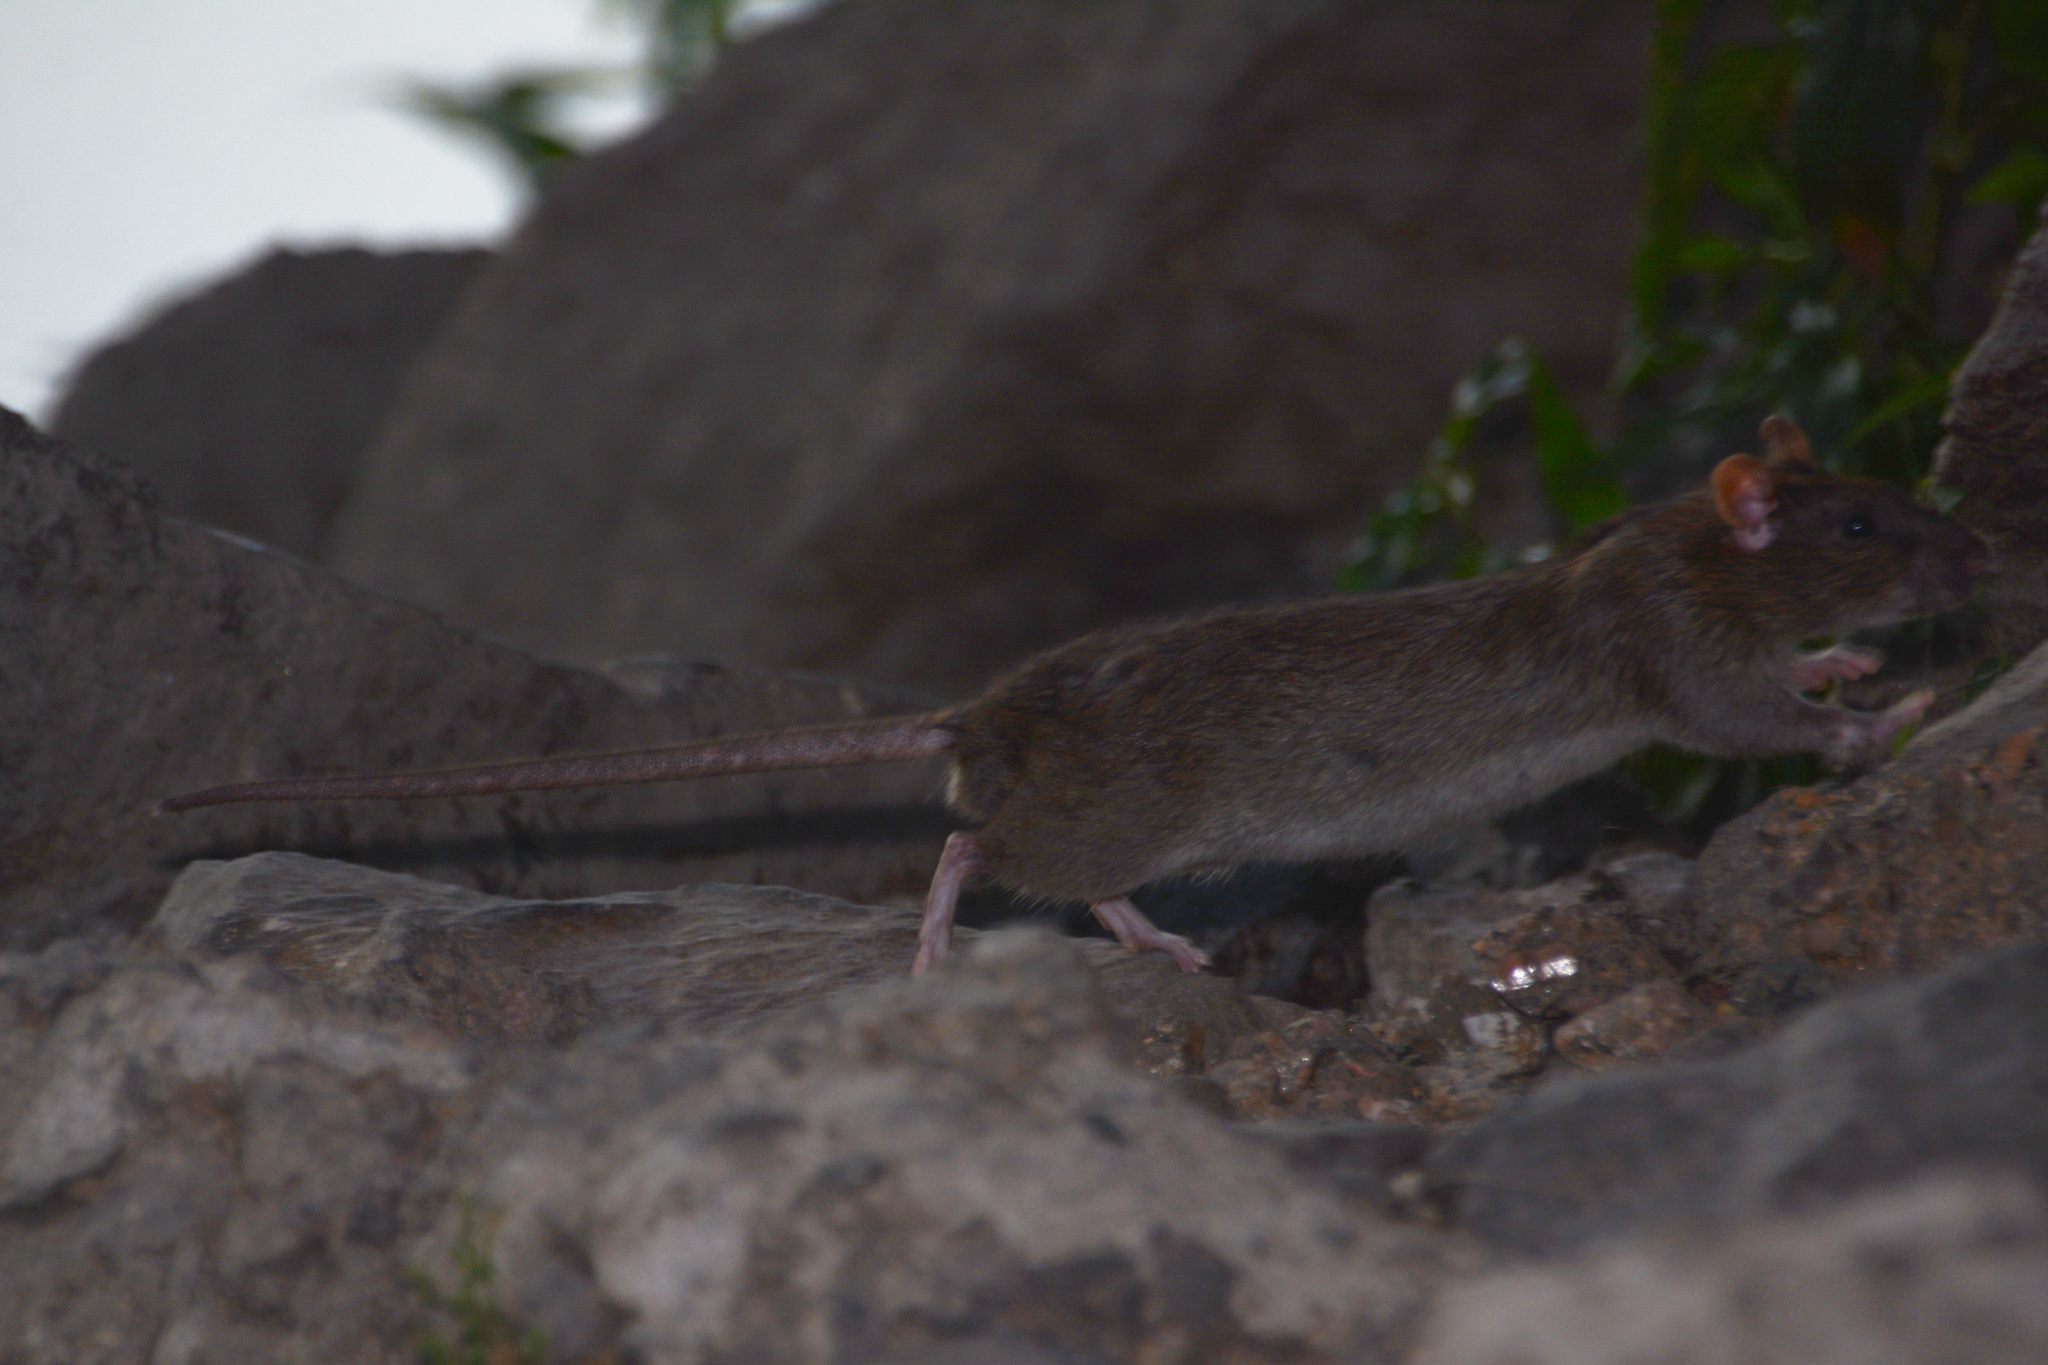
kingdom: Animalia
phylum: Chordata
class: Mammalia
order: Rodentia
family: Muridae
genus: Rattus
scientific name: Rattus norvegicus
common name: Brown rat
